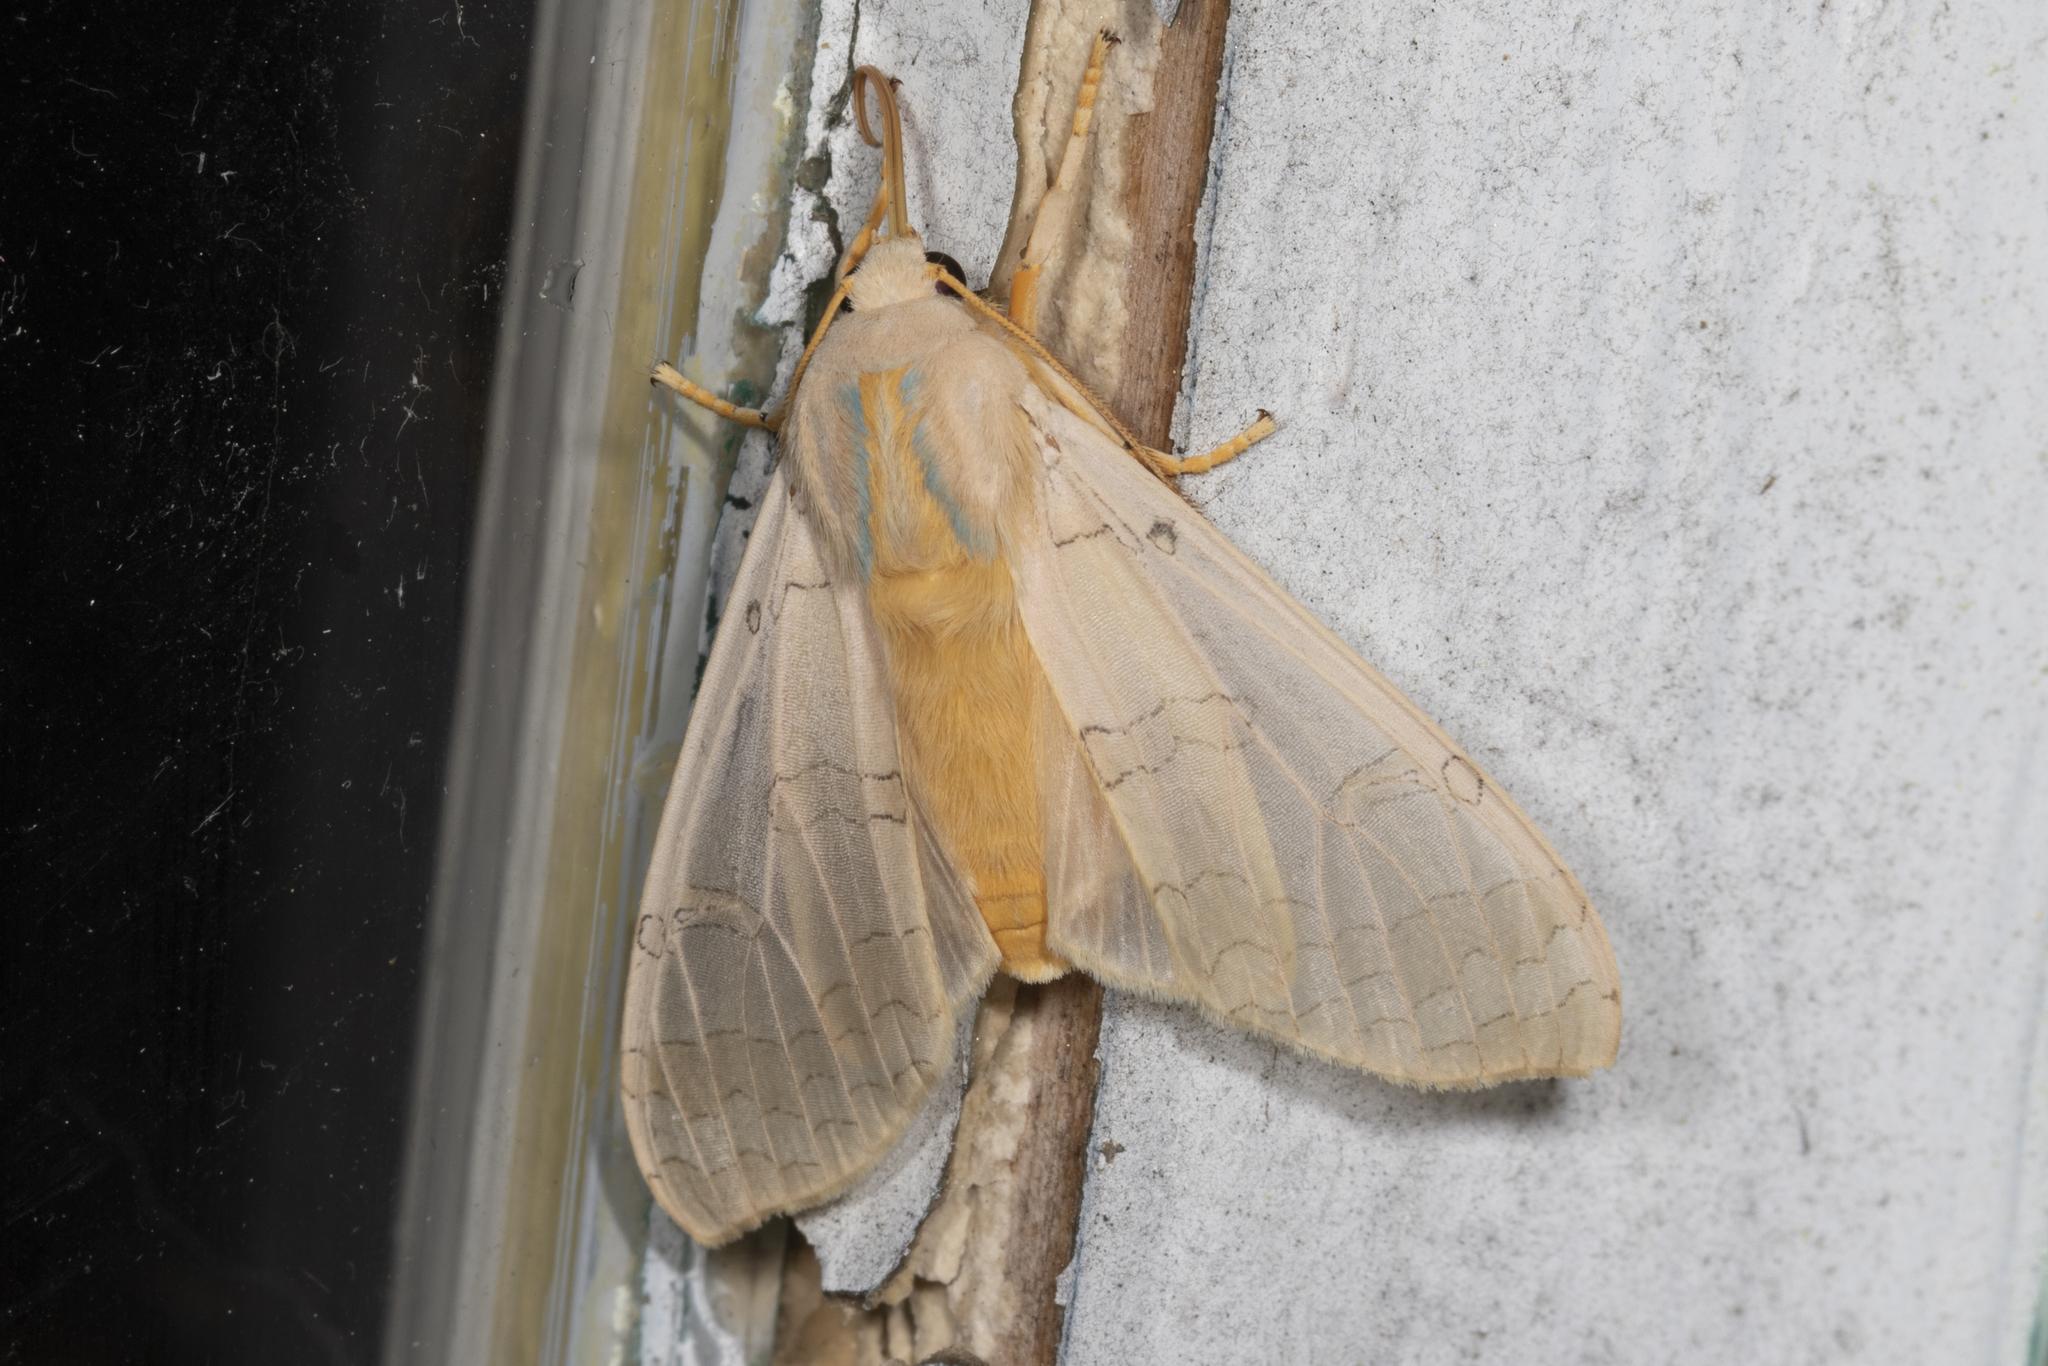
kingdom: Animalia
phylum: Arthropoda
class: Insecta
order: Lepidoptera
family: Erebidae
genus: Halysidota
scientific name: Halysidota
